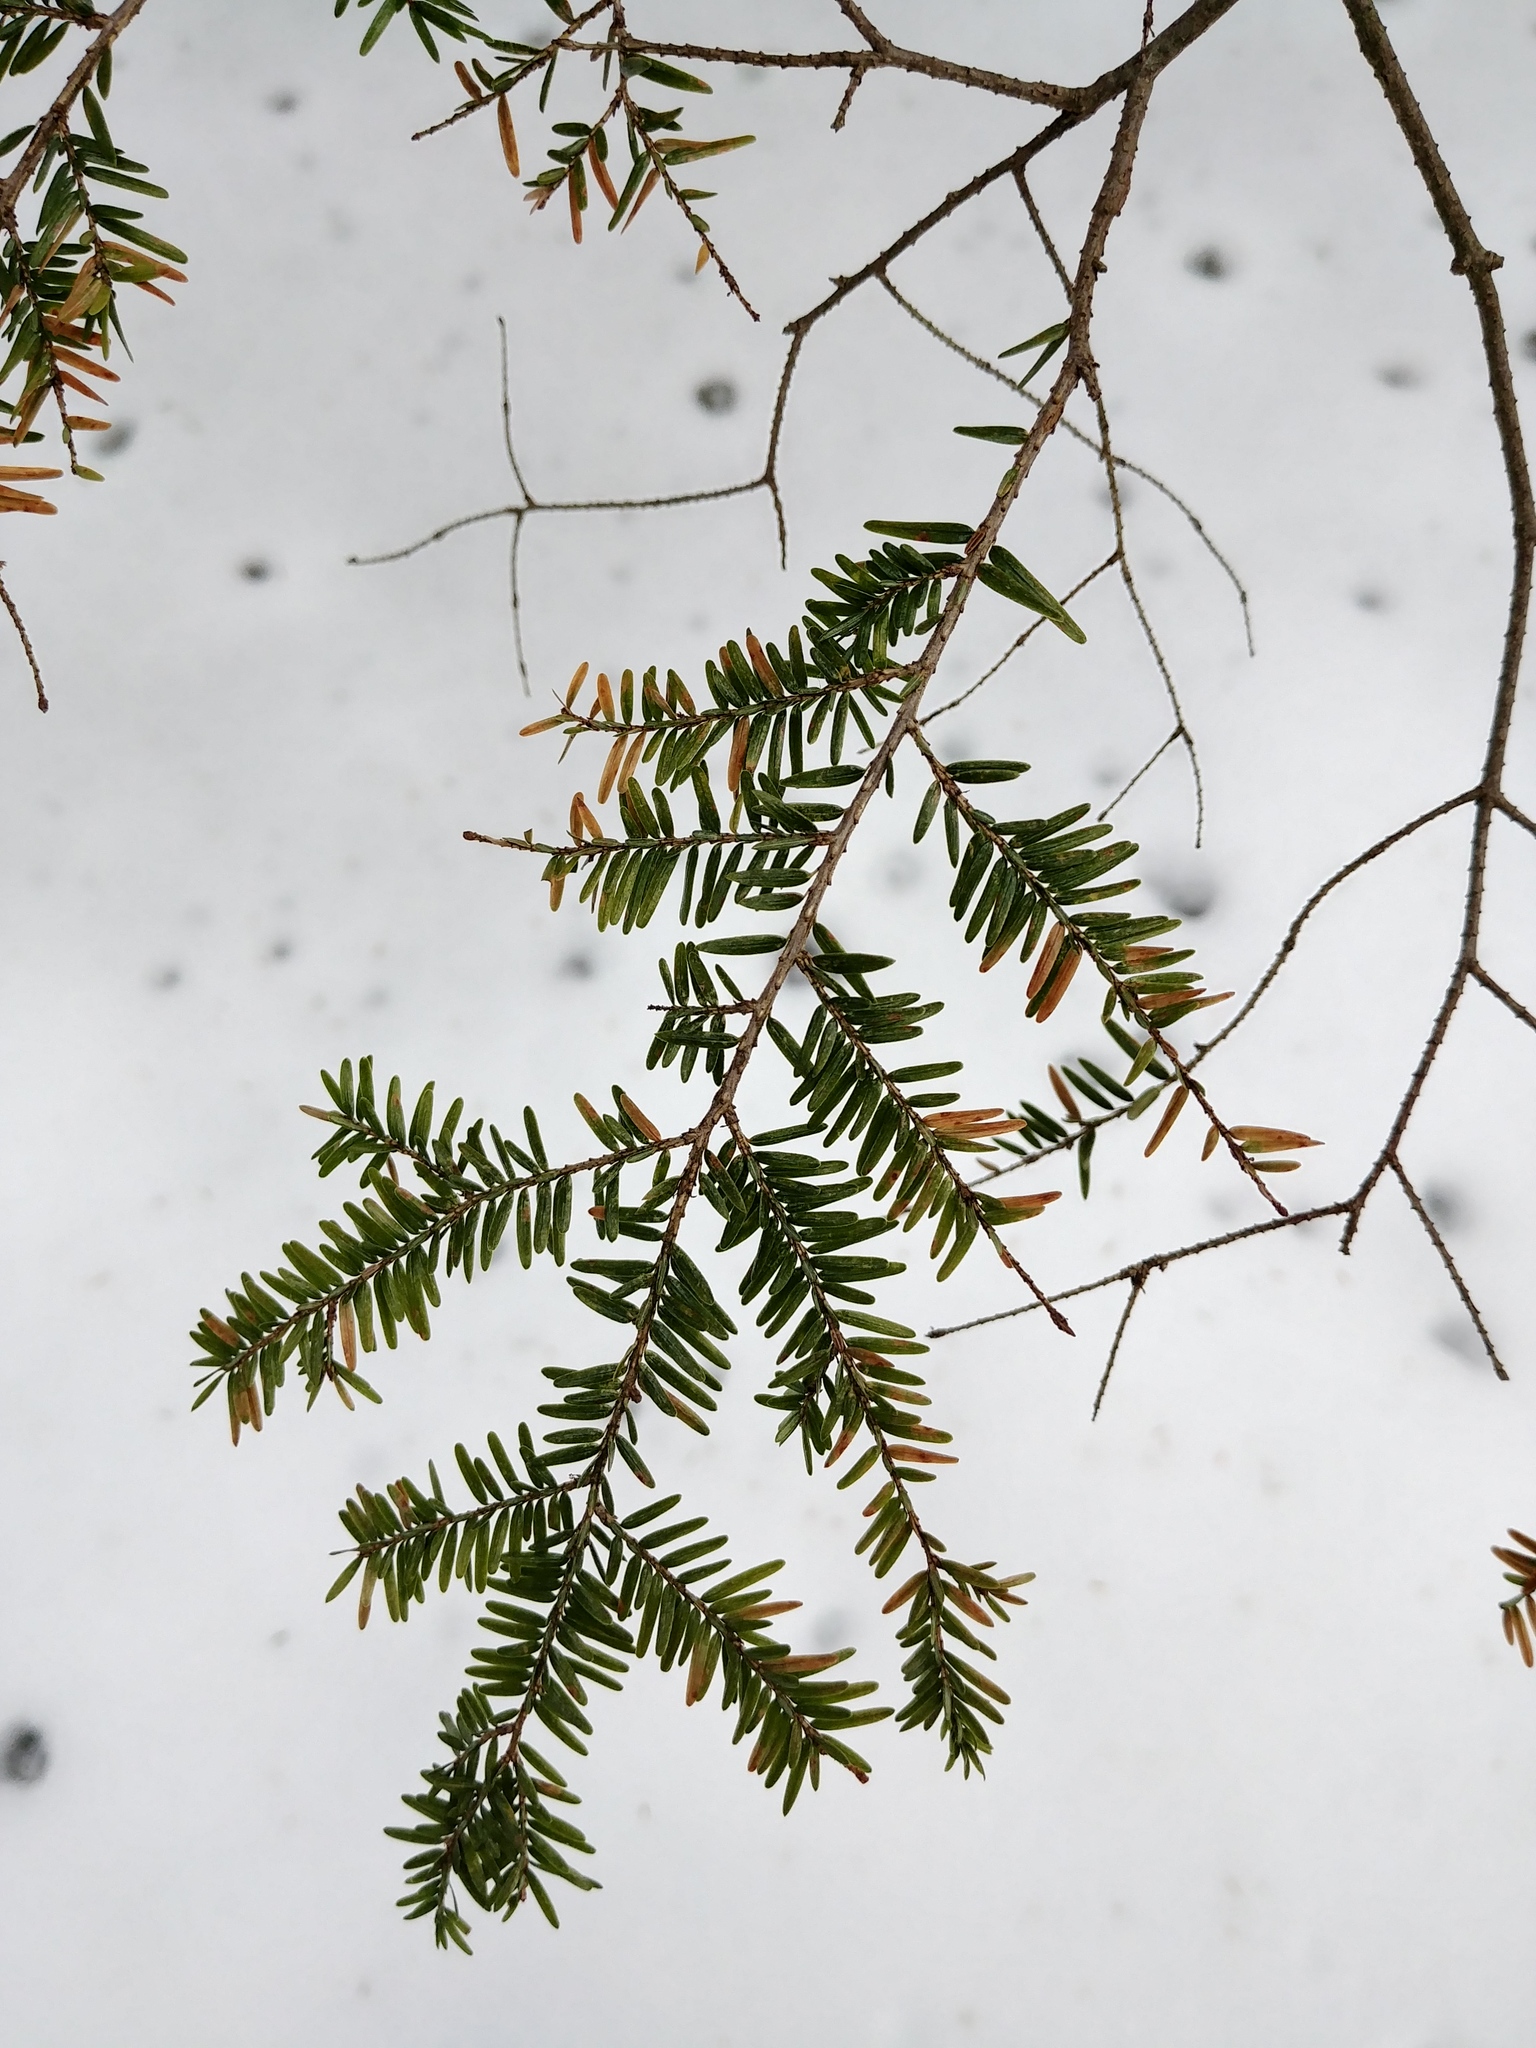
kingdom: Plantae
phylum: Tracheophyta
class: Pinopsida
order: Pinales
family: Pinaceae
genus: Tsuga
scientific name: Tsuga canadensis
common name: Eastern hemlock
